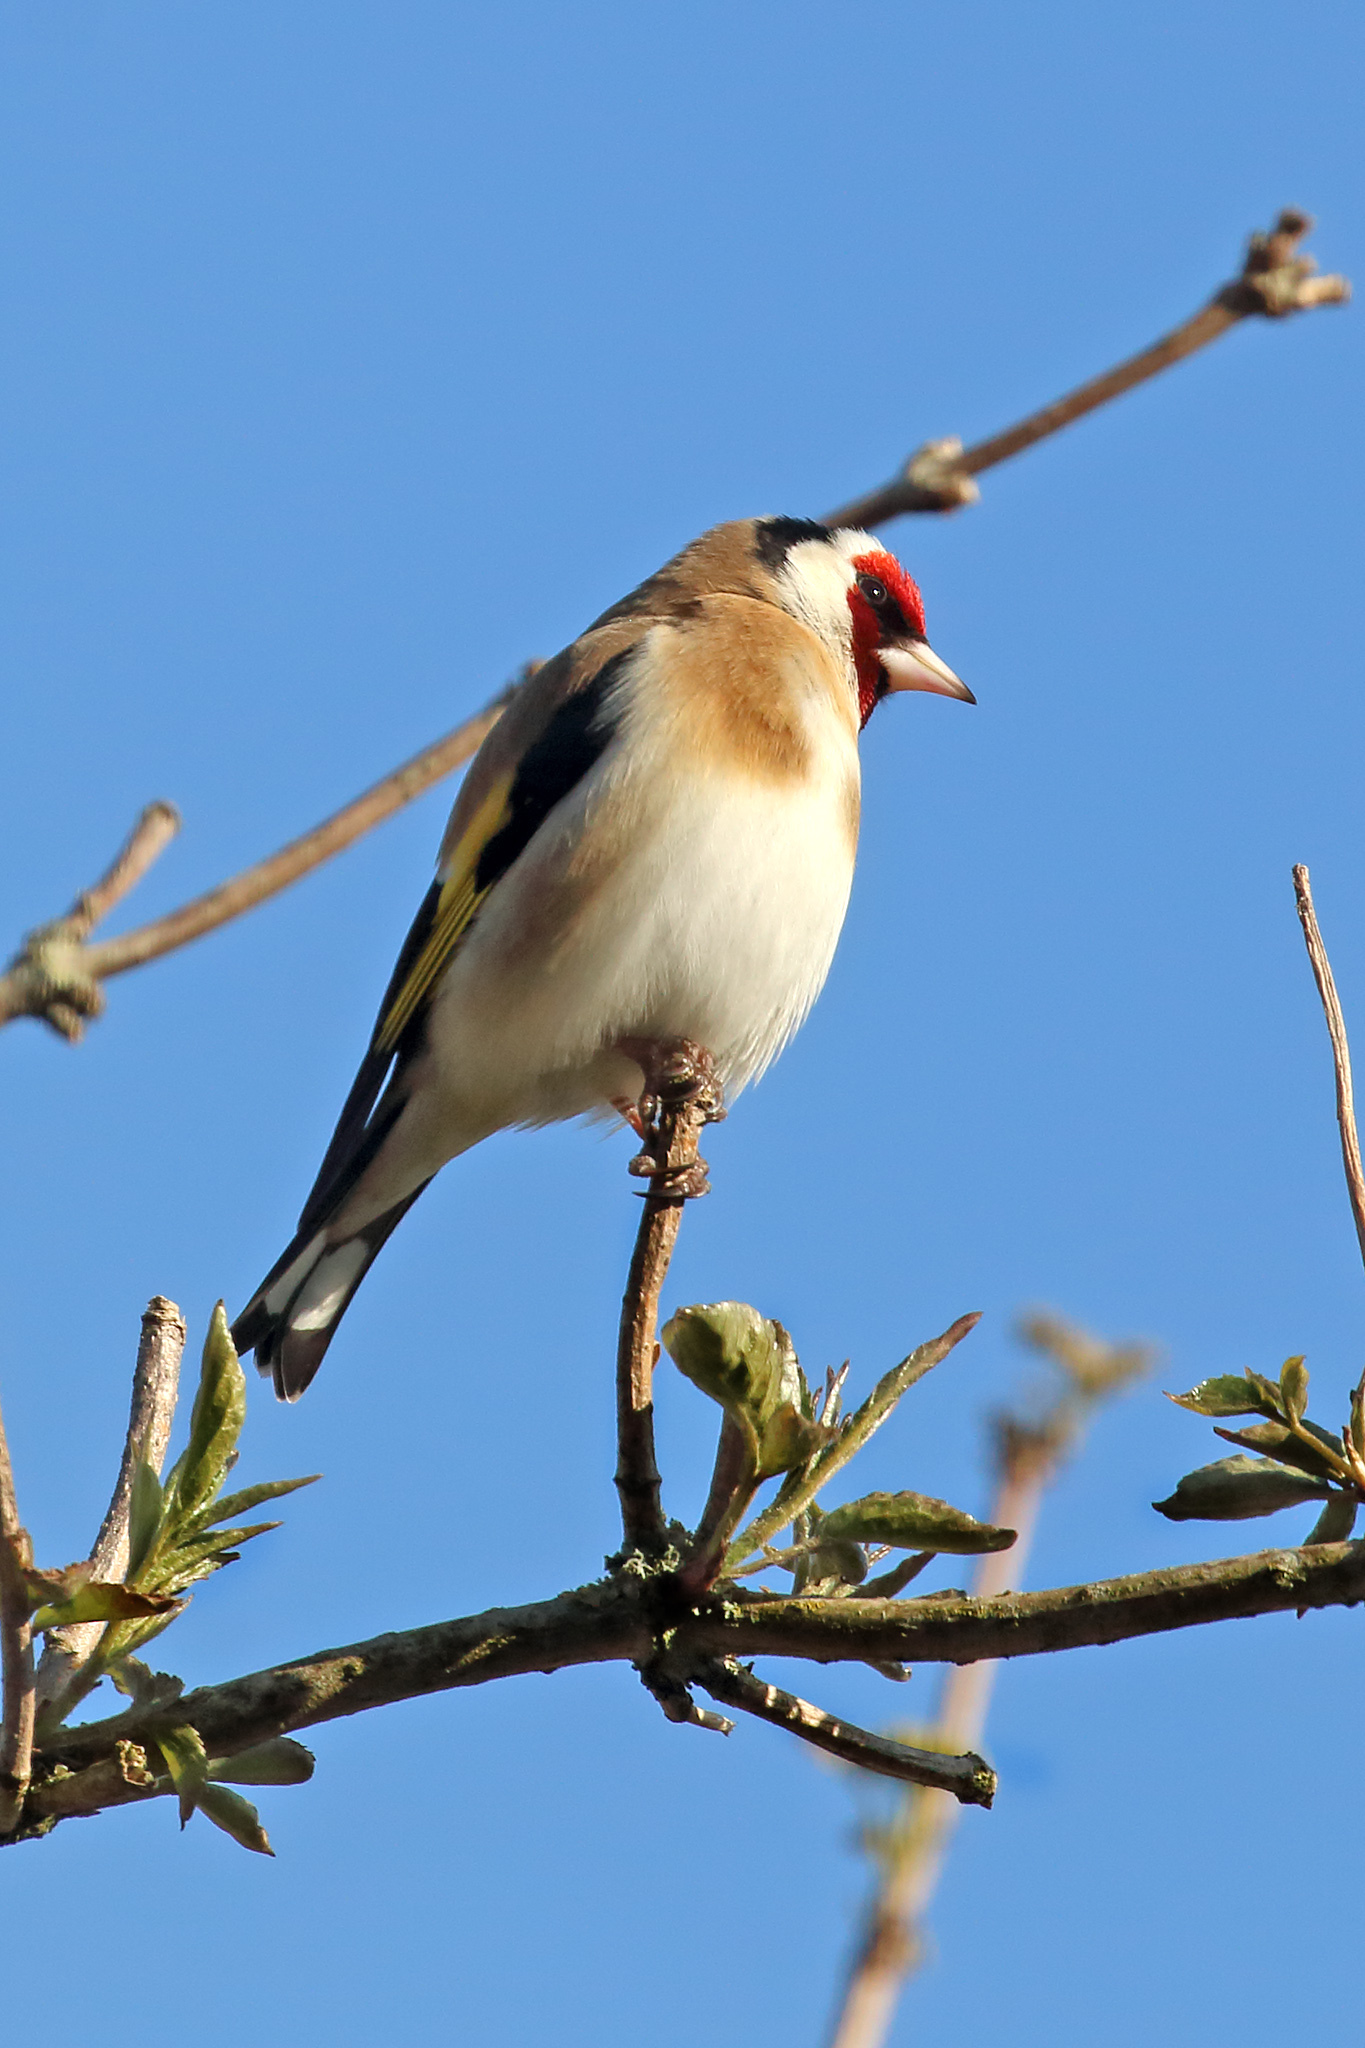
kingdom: Animalia
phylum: Chordata
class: Aves
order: Passeriformes
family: Fringillidae
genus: Carduelis
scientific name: Carduelis carduelis
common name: European goldfinch
